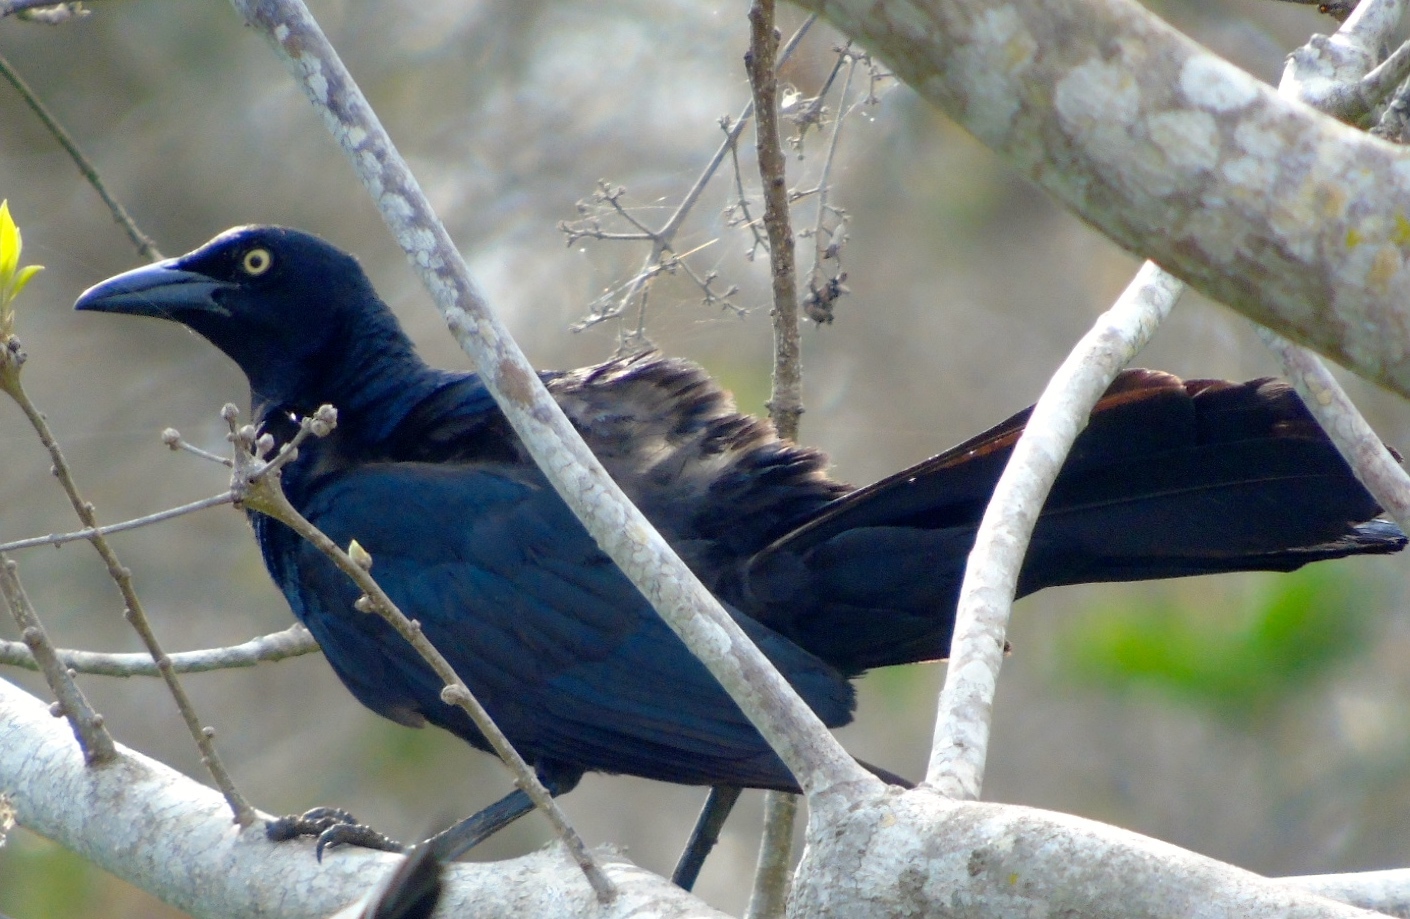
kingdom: Animalia
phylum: Chordata
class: Aves
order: Passeriformes
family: Icteridae
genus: Quiscalus
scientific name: Quiscalus mexicanus
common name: Great-tailed grackle
